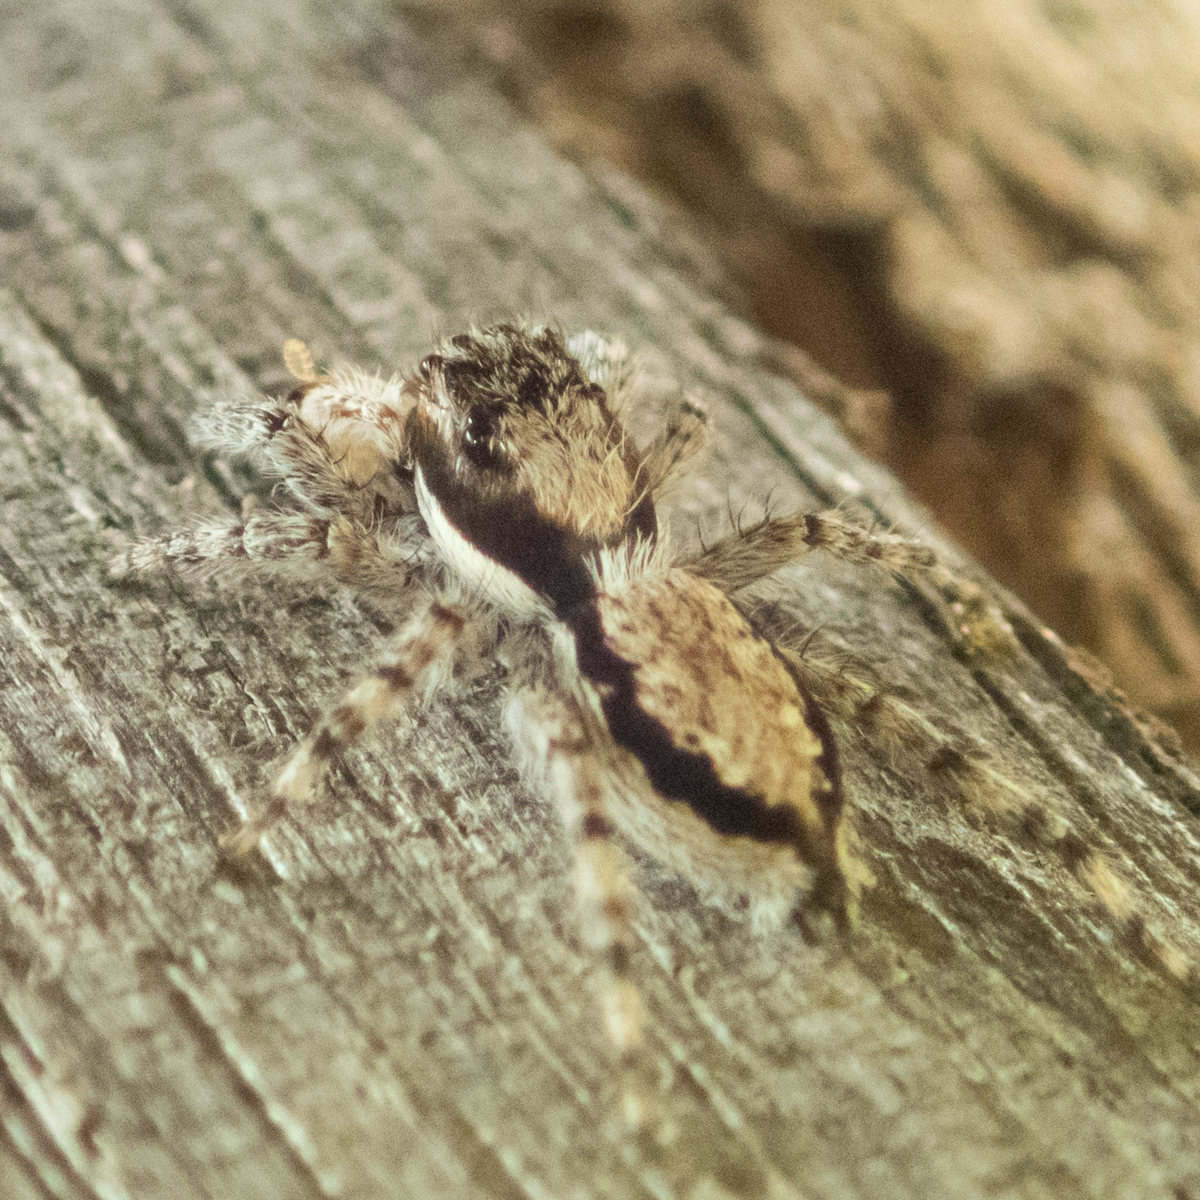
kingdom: Animalia
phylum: Arthropoda
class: Arachnida
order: Araneae
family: Salticidae
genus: Menemerus
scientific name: Menemerus bivittatus
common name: Gray wall jumper
